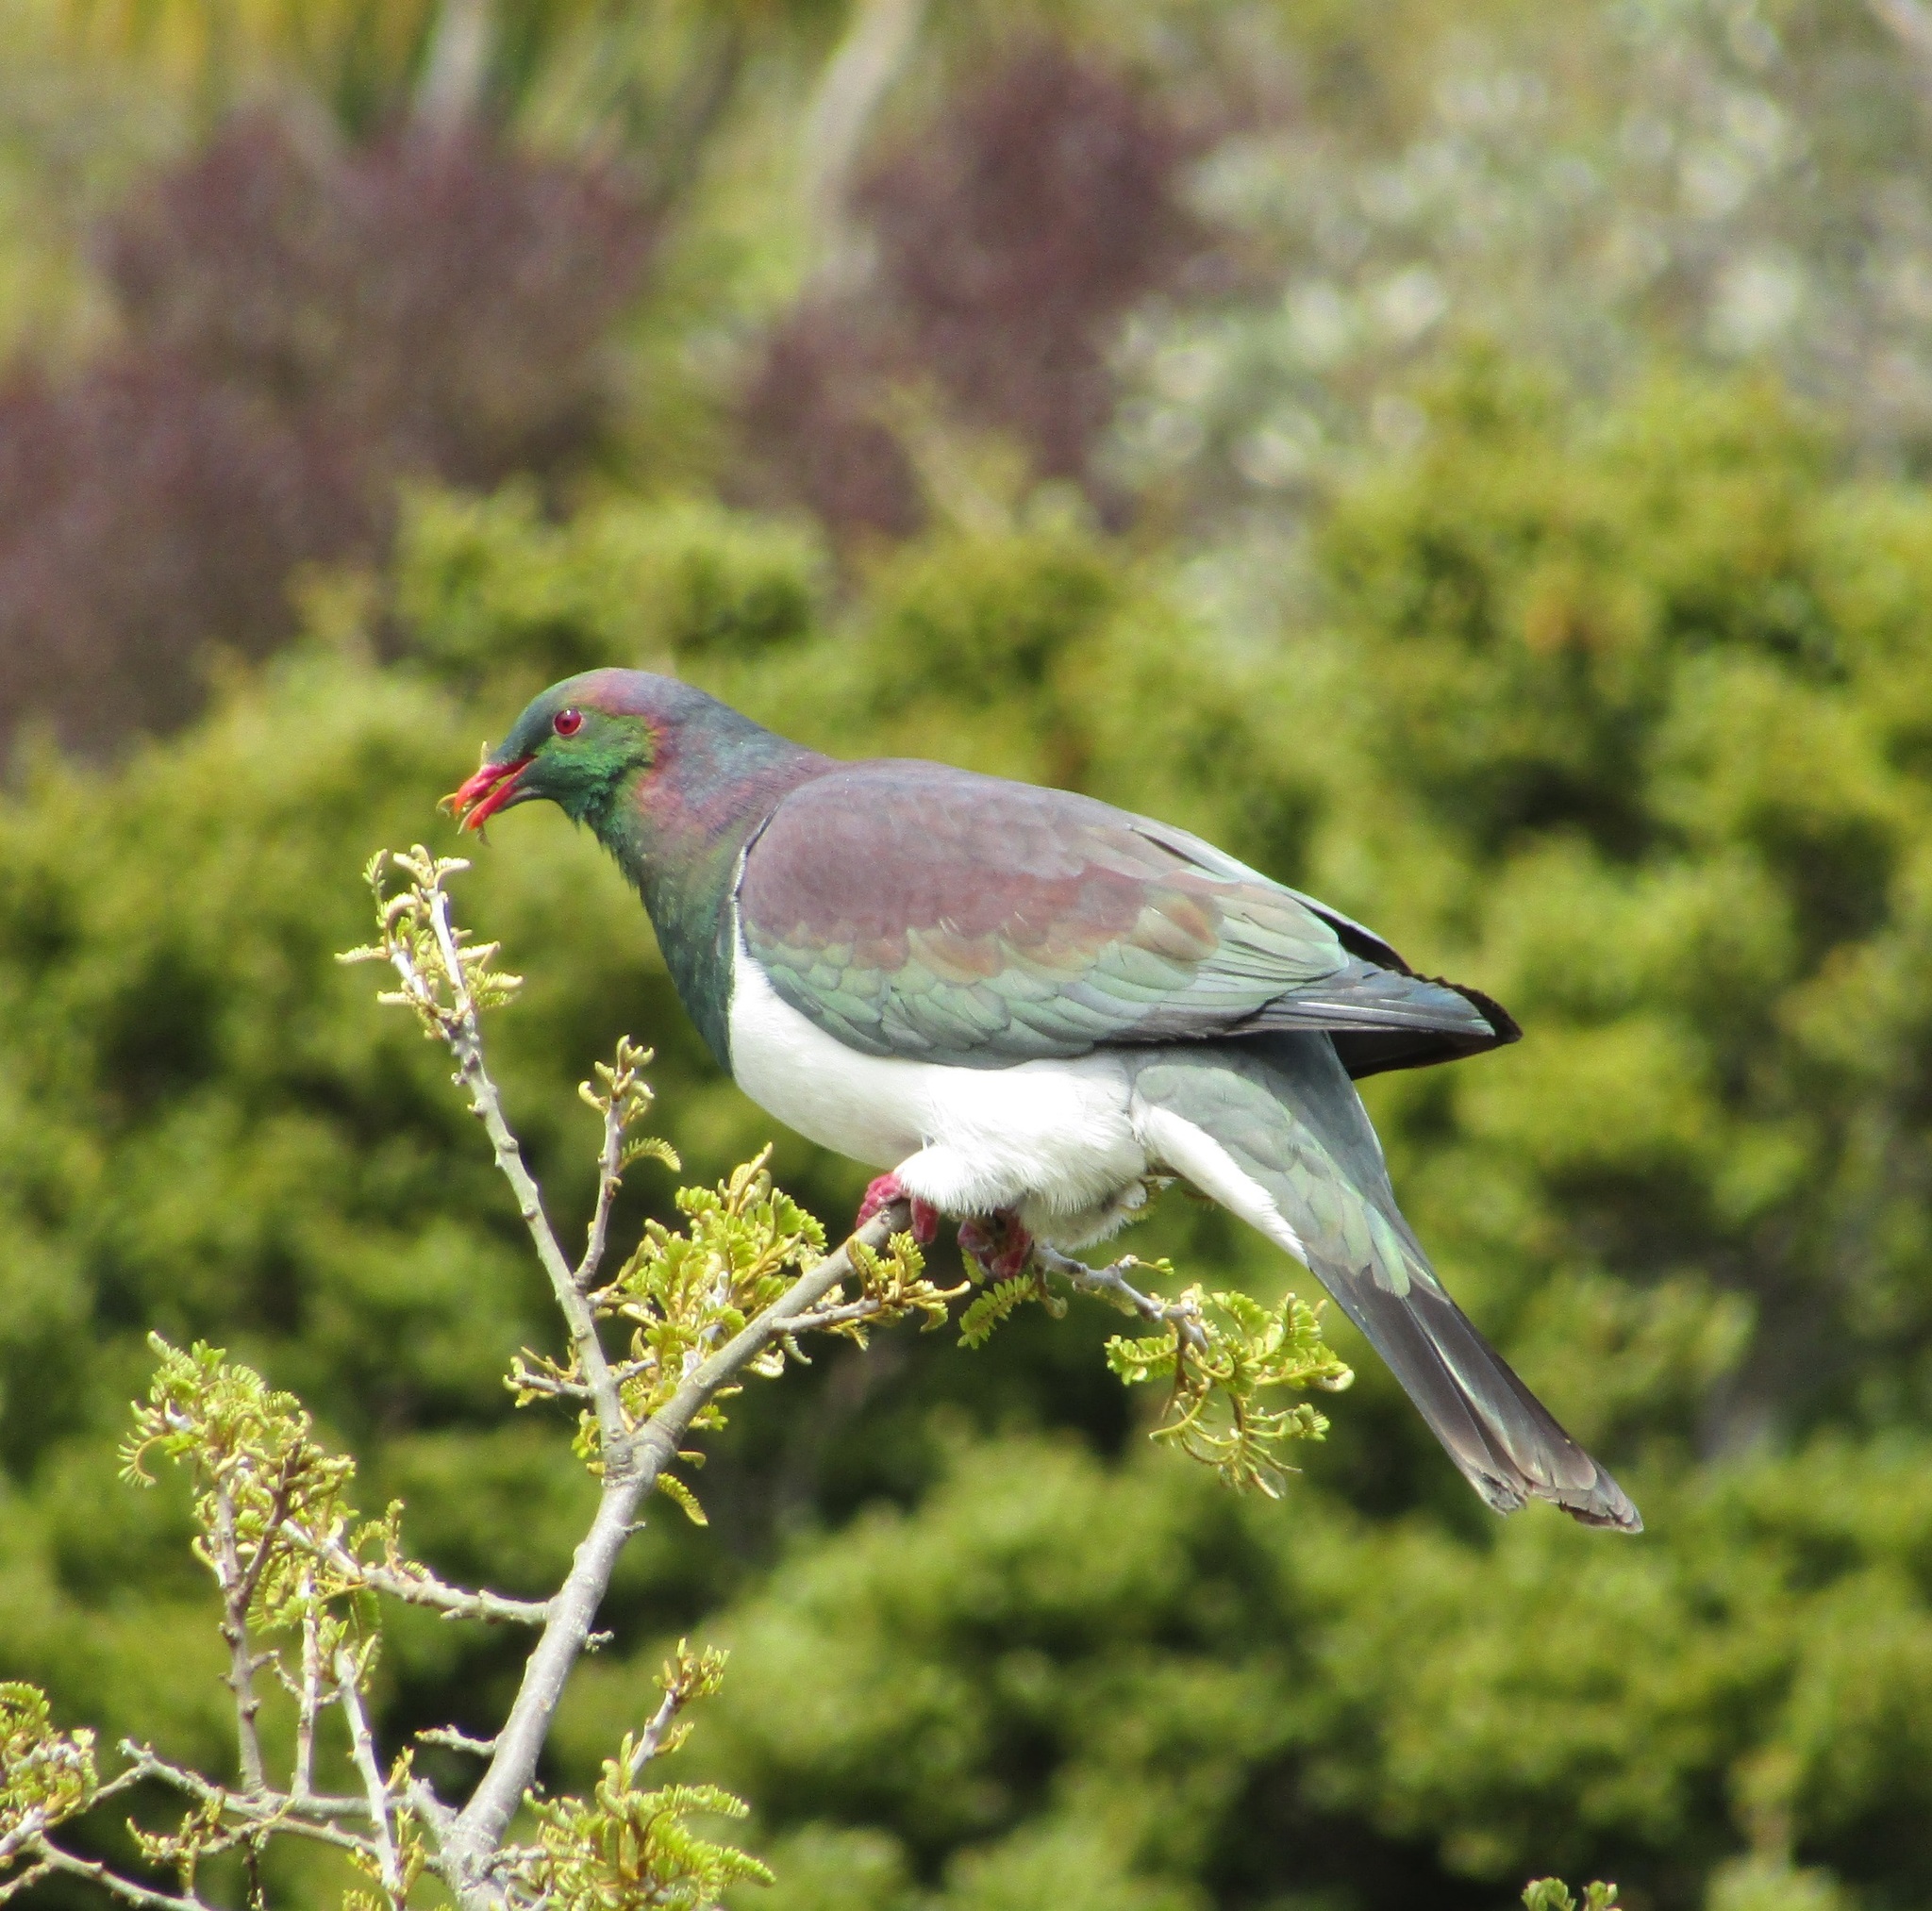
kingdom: Animalia
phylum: Chordata
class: Aves
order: Columbiformes
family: Columbidae
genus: Hemiphaga
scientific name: Hemiphaga novaeseelandiae
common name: New zealand pigeon
